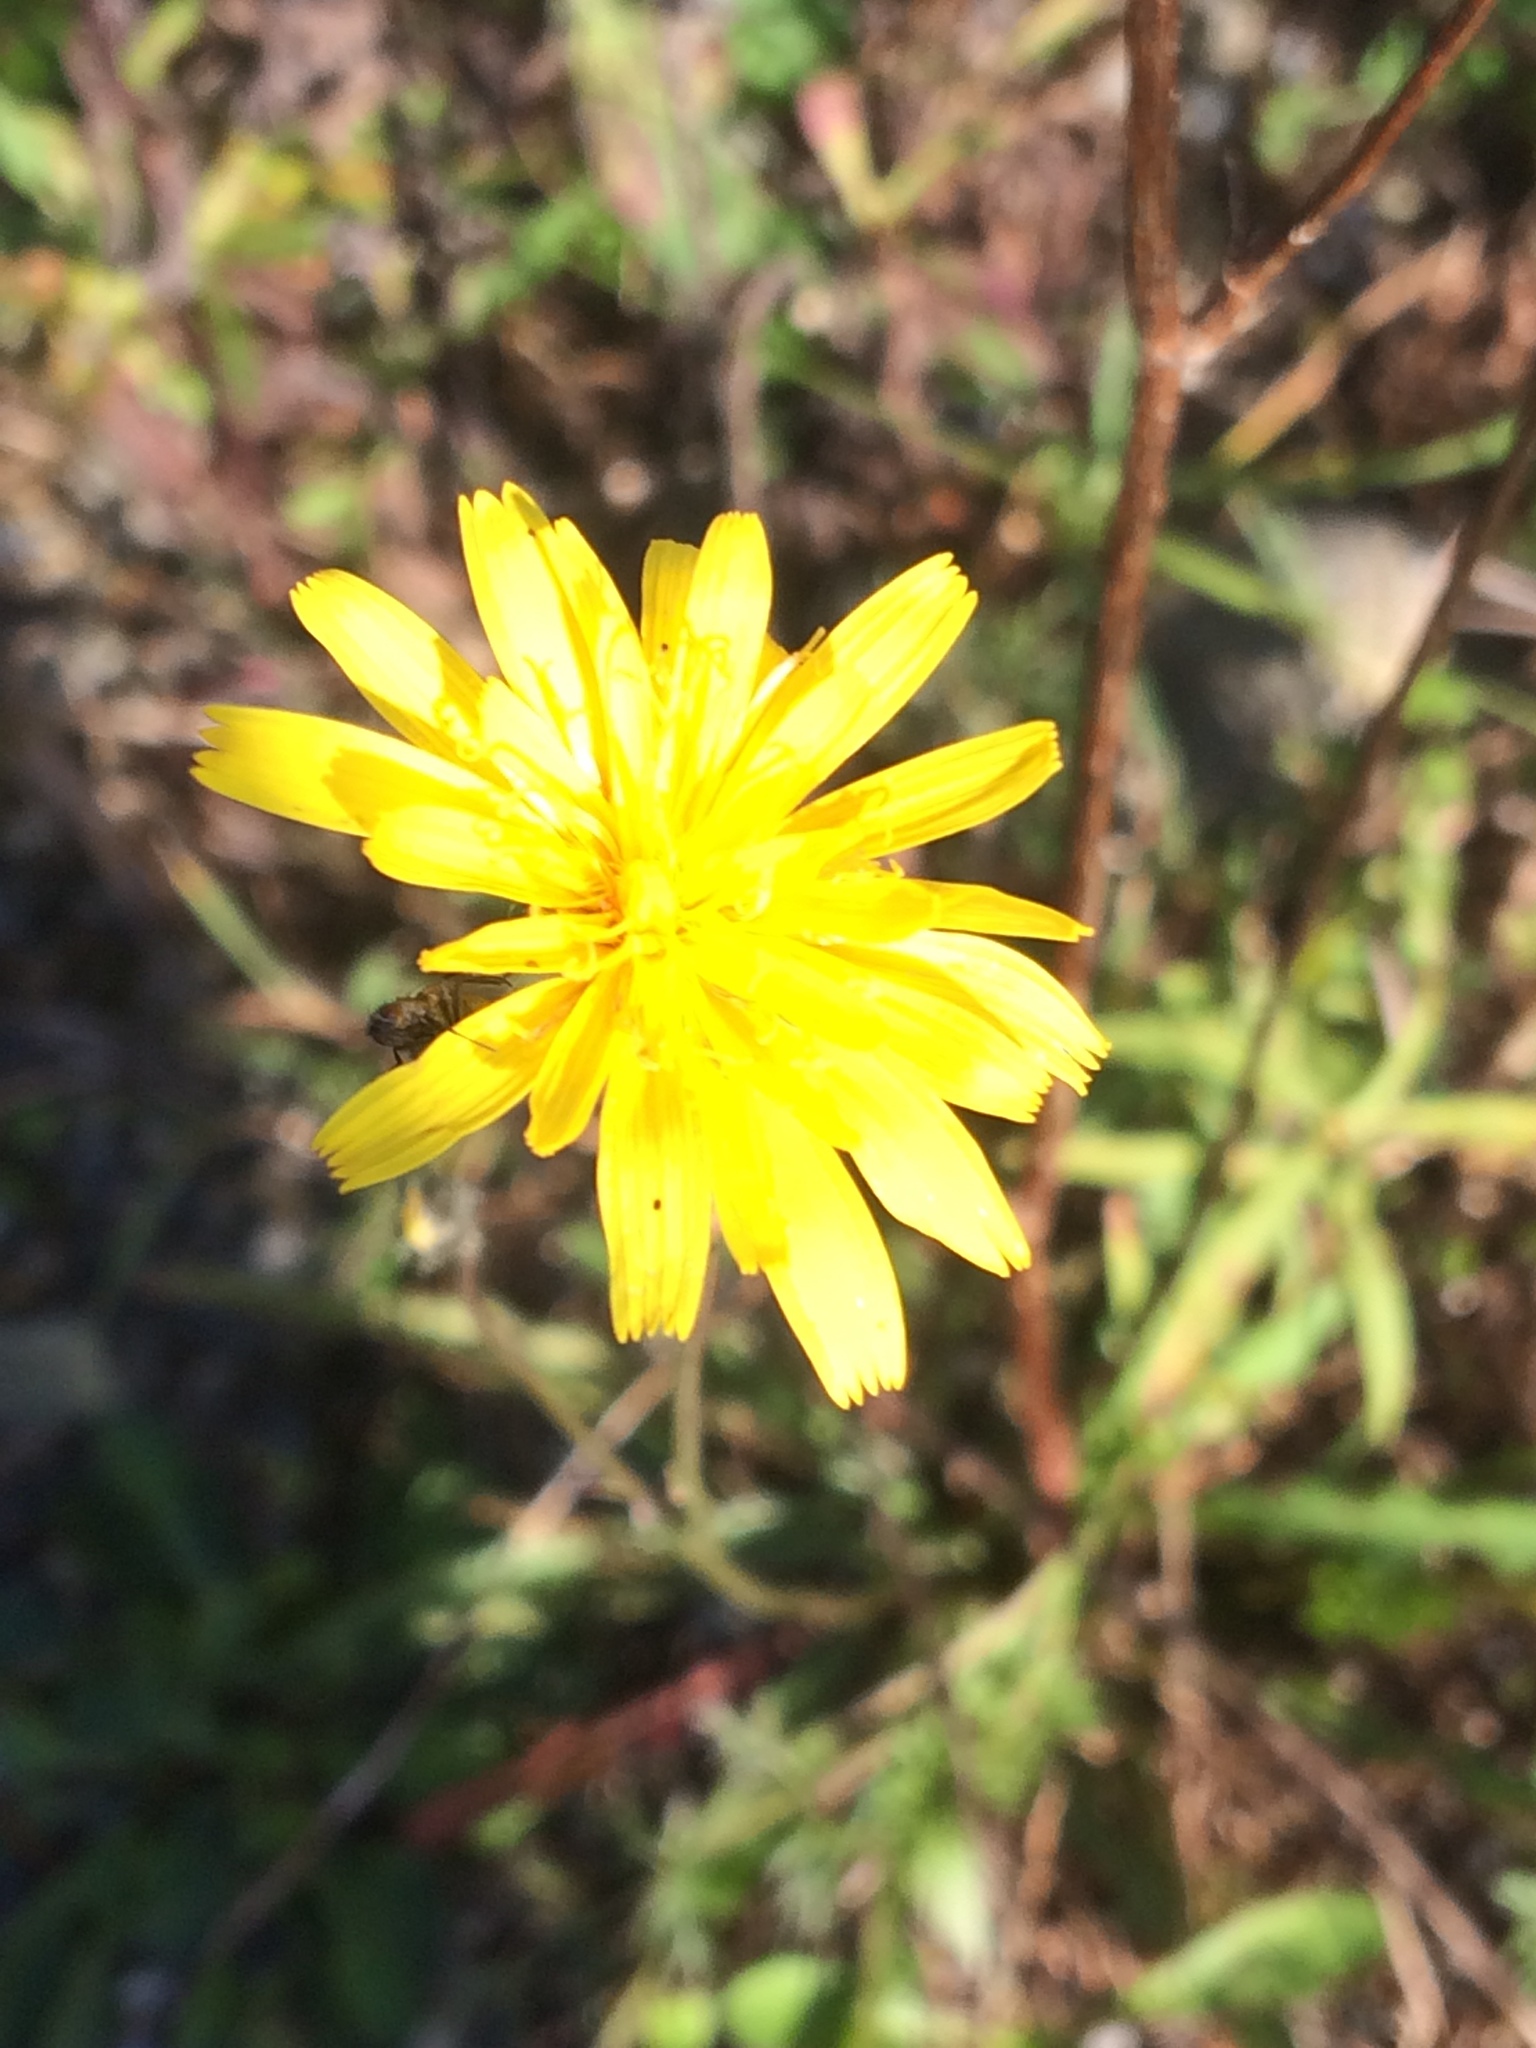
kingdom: Plantae
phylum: Tracheophyta
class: Magnoliopsida
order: Asterales
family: Asteraceae
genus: Scorzoneroides
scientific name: Scorzoneroides autumnalis
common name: Autumn hawkbit
